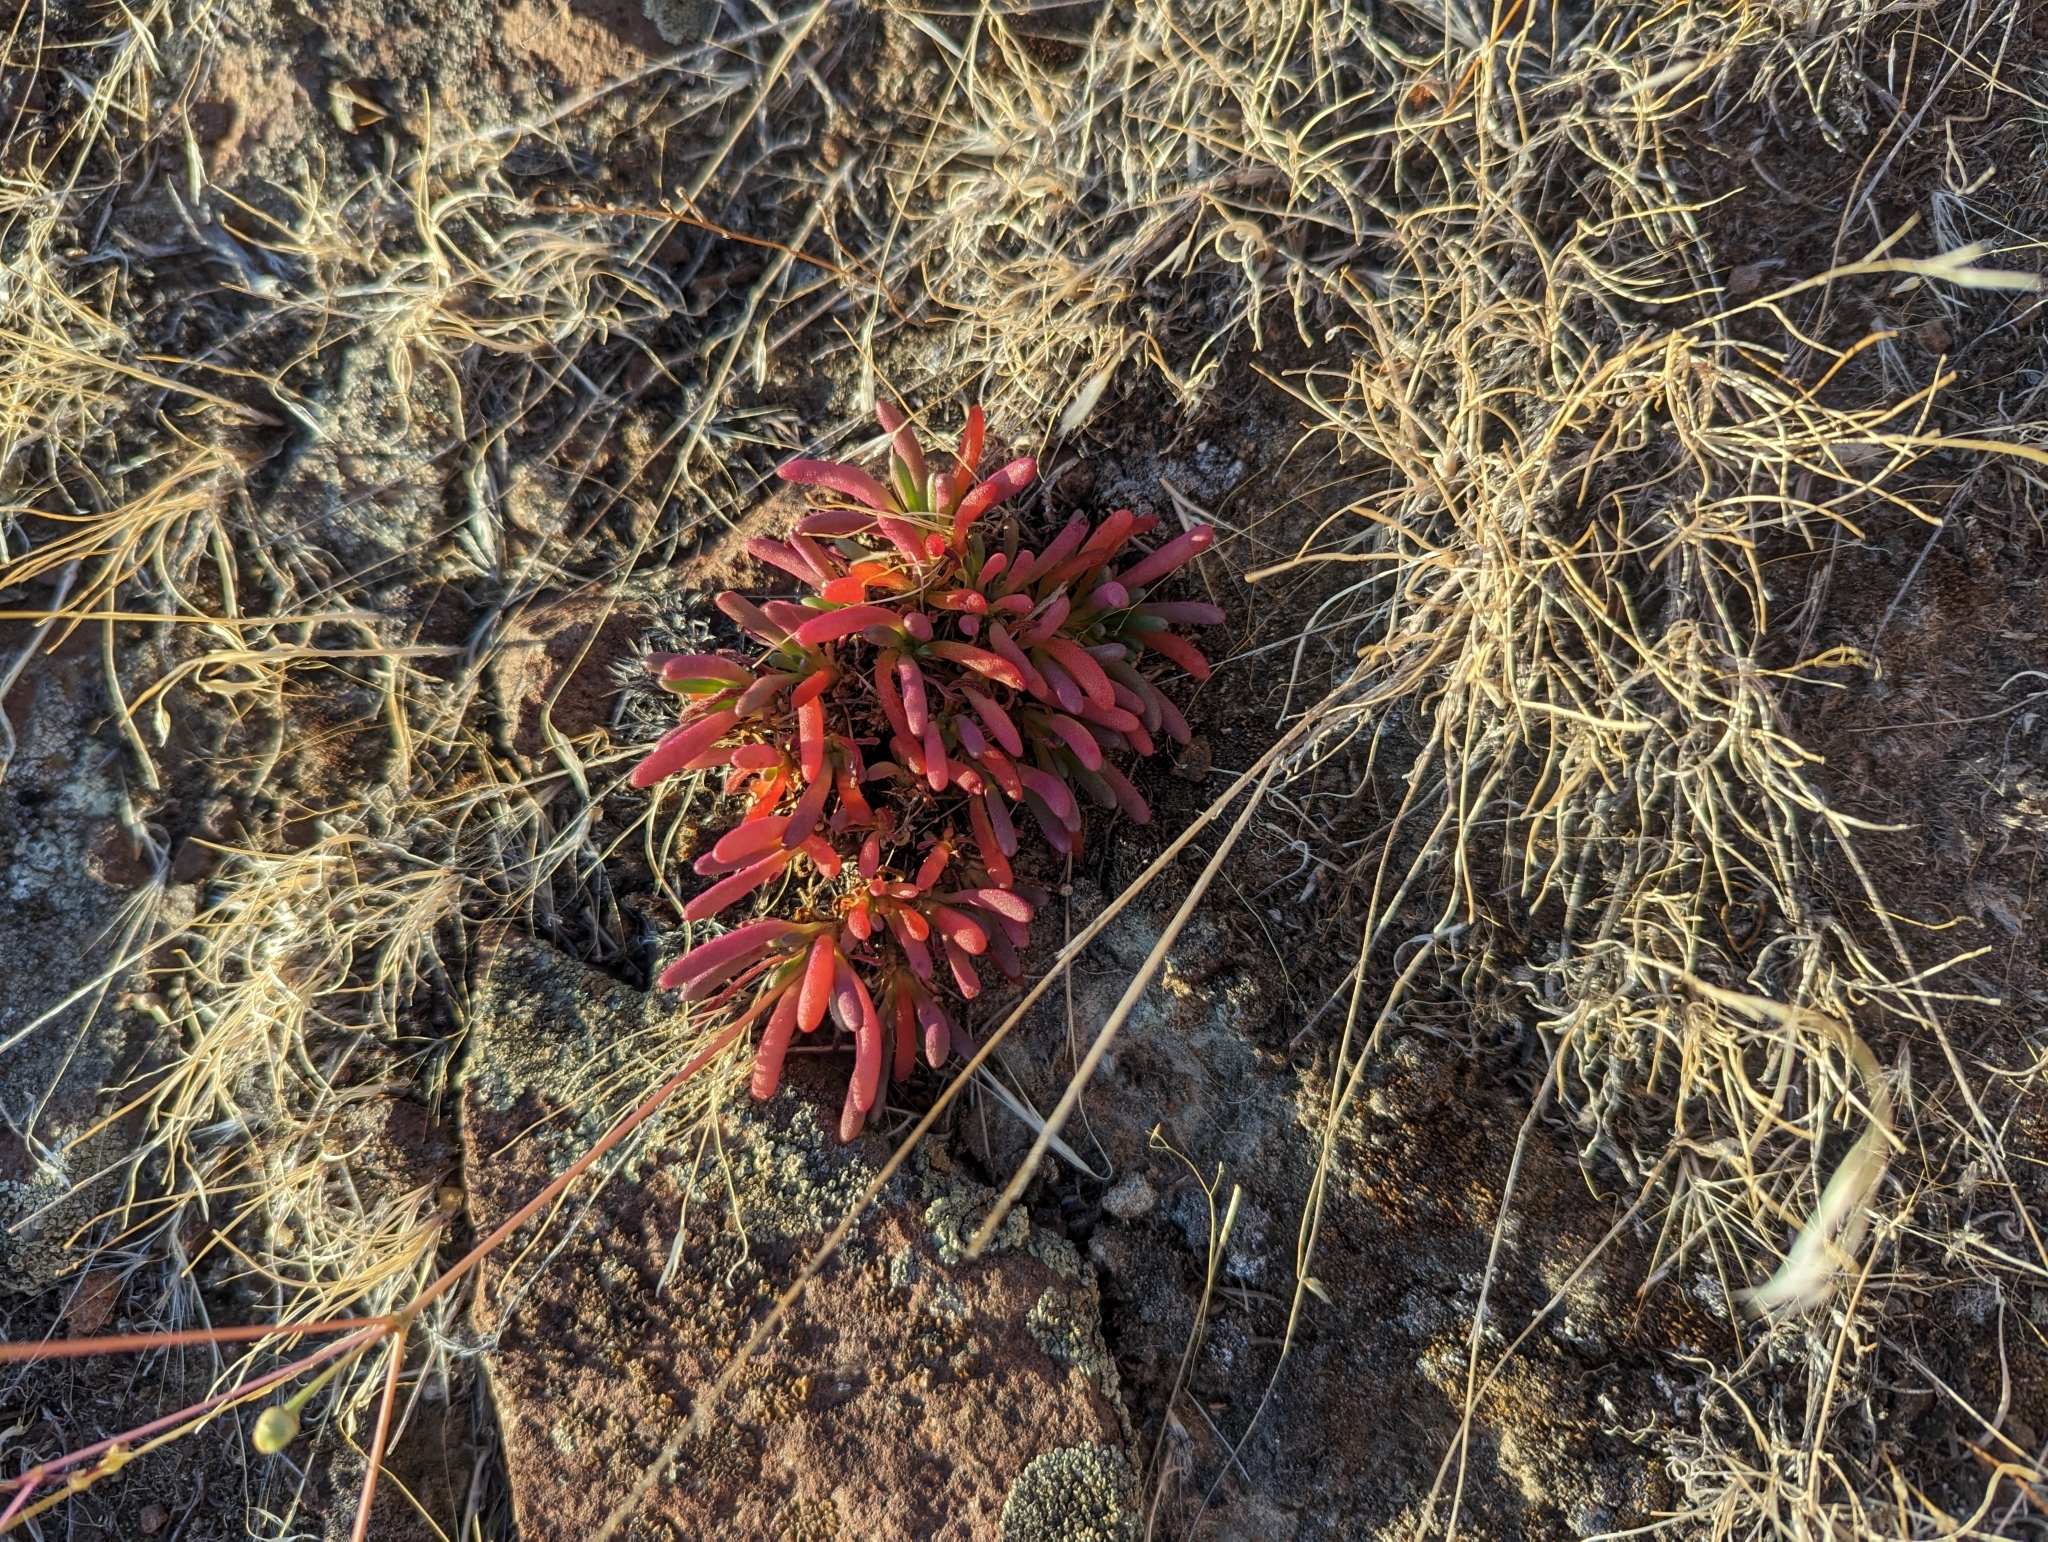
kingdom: Plantae
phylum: Tracheophyta
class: Magnoliopsida
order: Caryophyllales
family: Montiaceae
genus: Phemeranthus
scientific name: Phemeranthus spinescens
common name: Spiny fameflower
